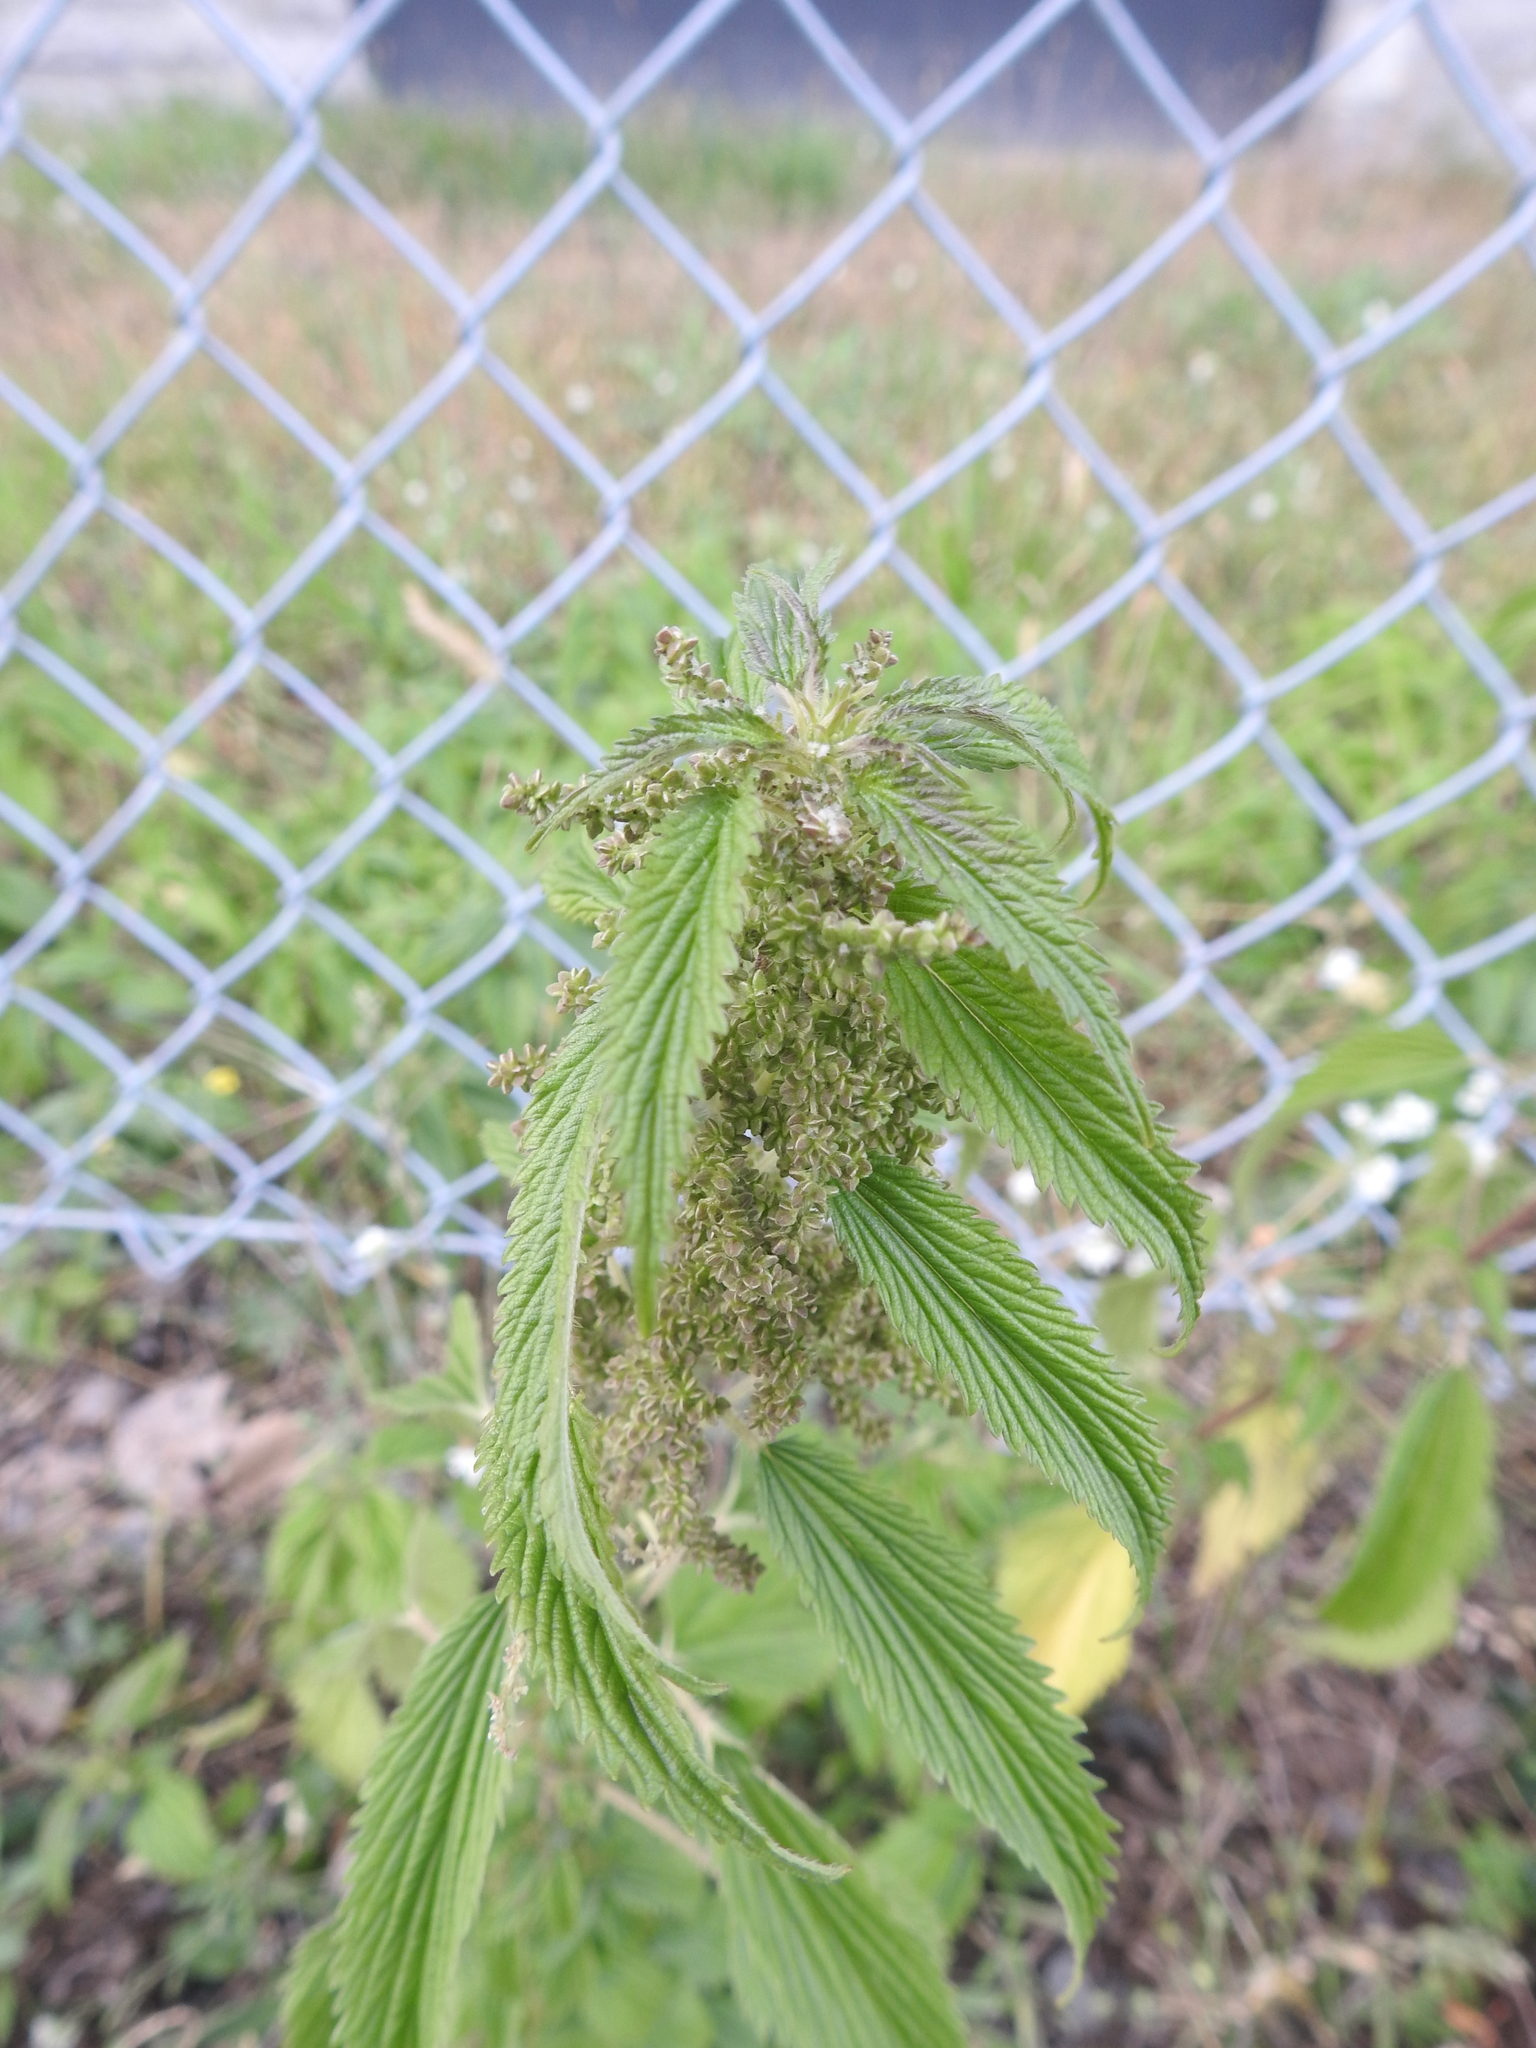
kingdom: Plantae
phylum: Tracheophyta
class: Magnoliopsida
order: Rosales
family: Urticaceae
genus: Urtica
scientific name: Urtica dioica
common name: Common nettle
